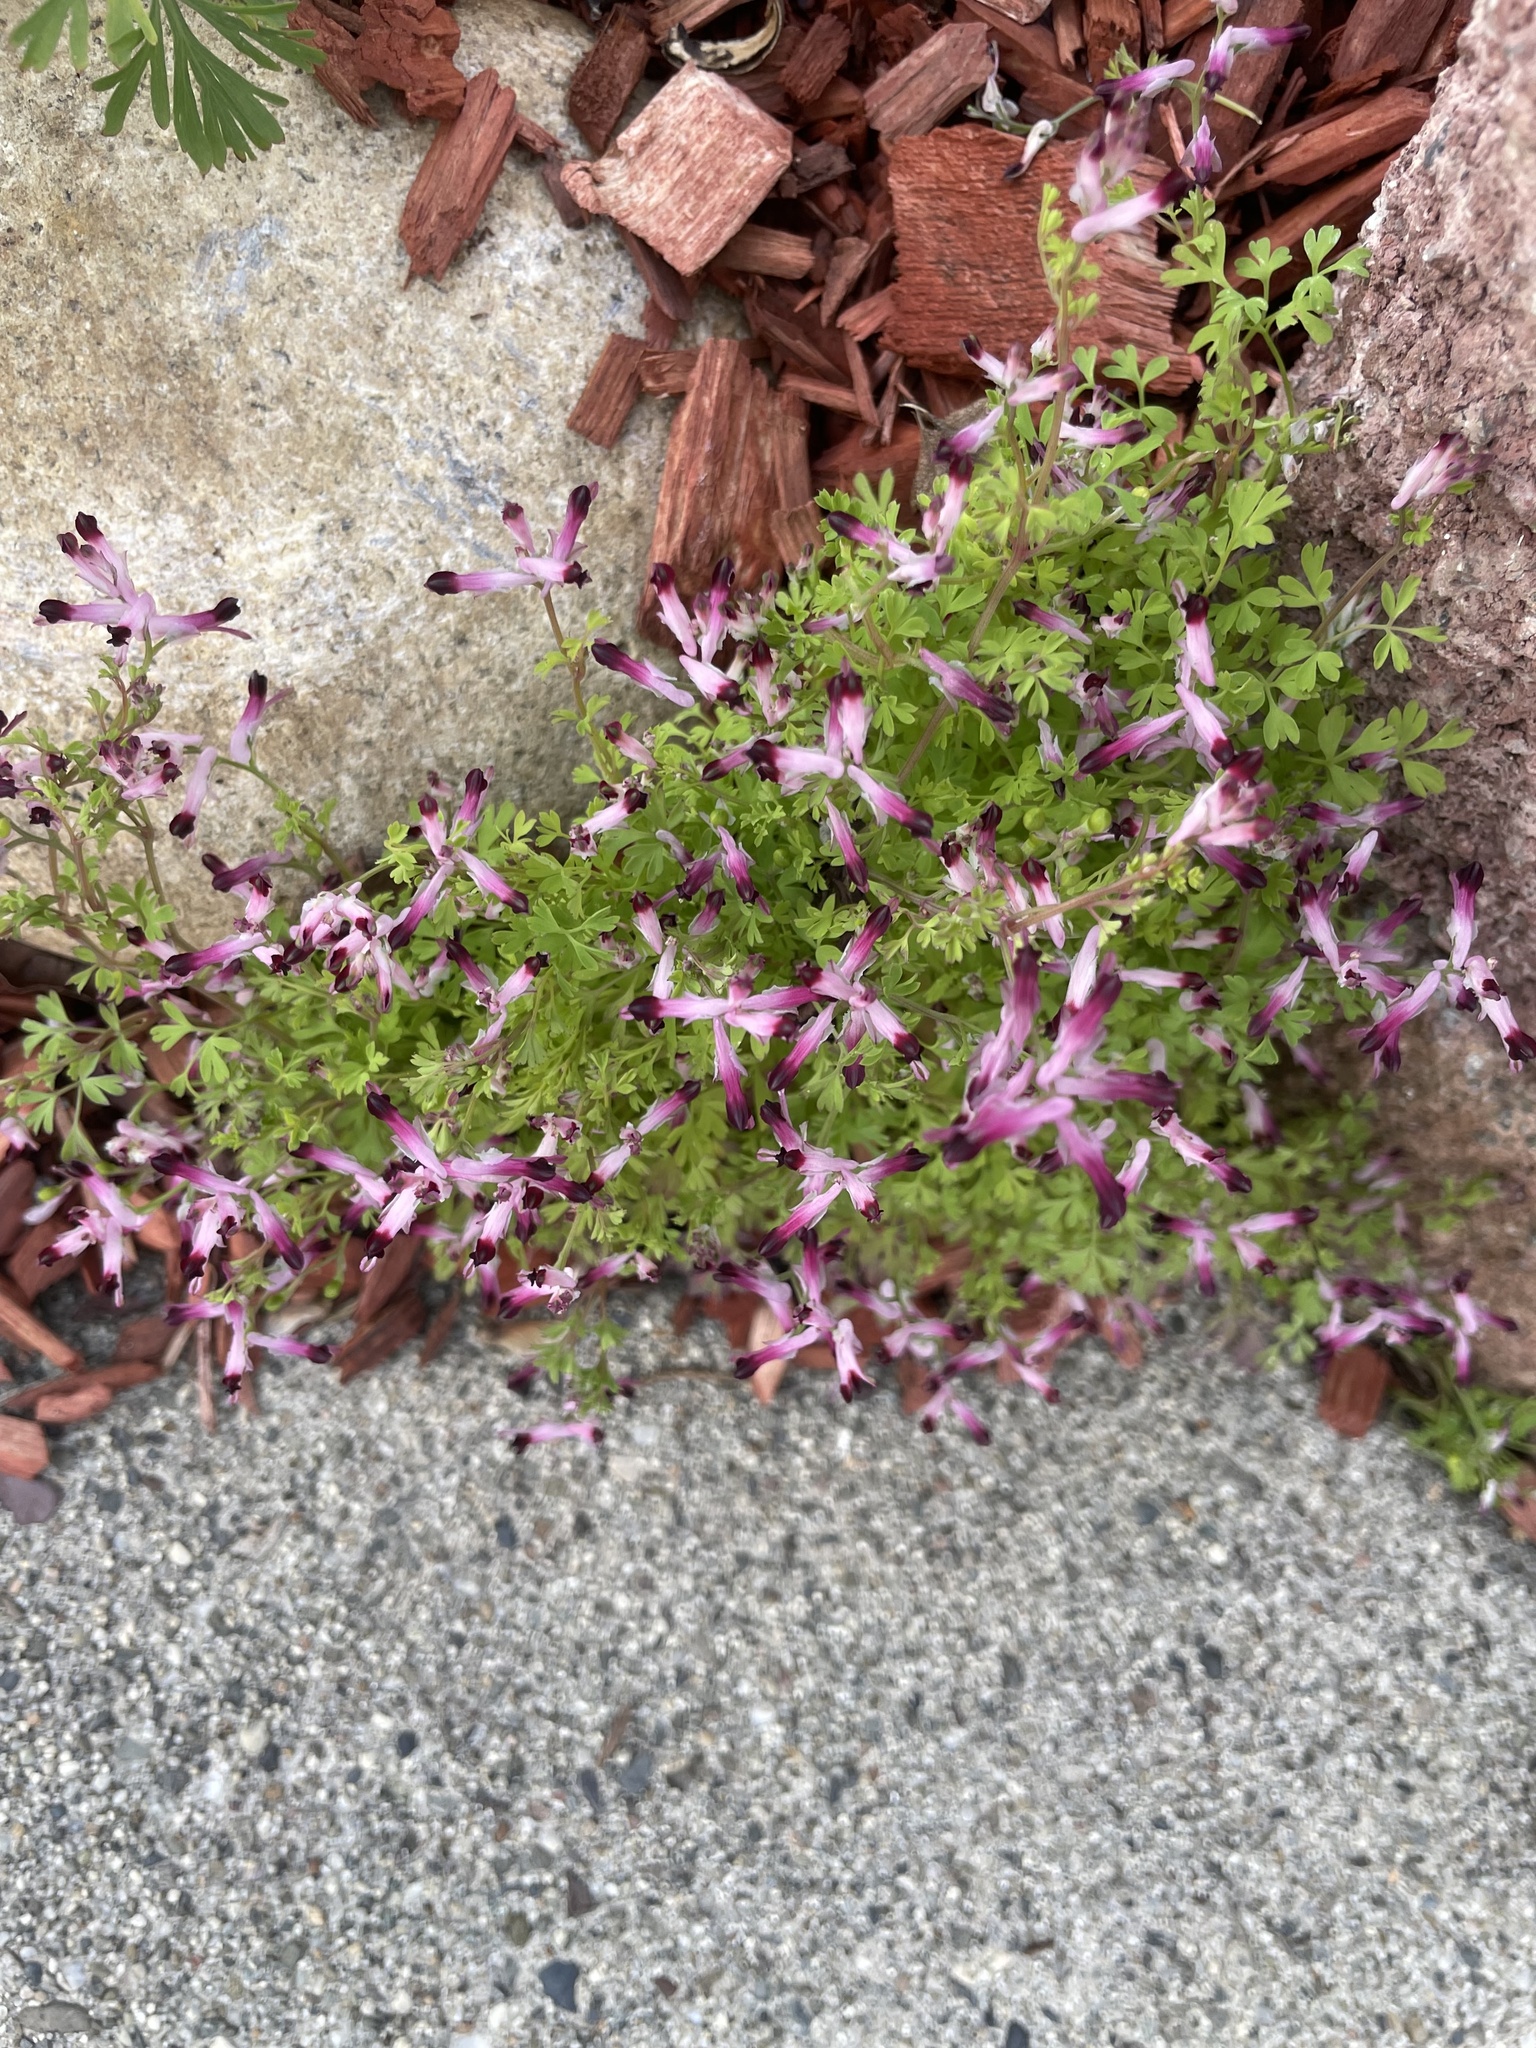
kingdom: Plantae
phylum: Tracheophyta
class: Magnoliopsida
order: Ranunculales
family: Papaveraceae
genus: Fumaria
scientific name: Fumaria muralis
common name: Common ramping-fumitory
